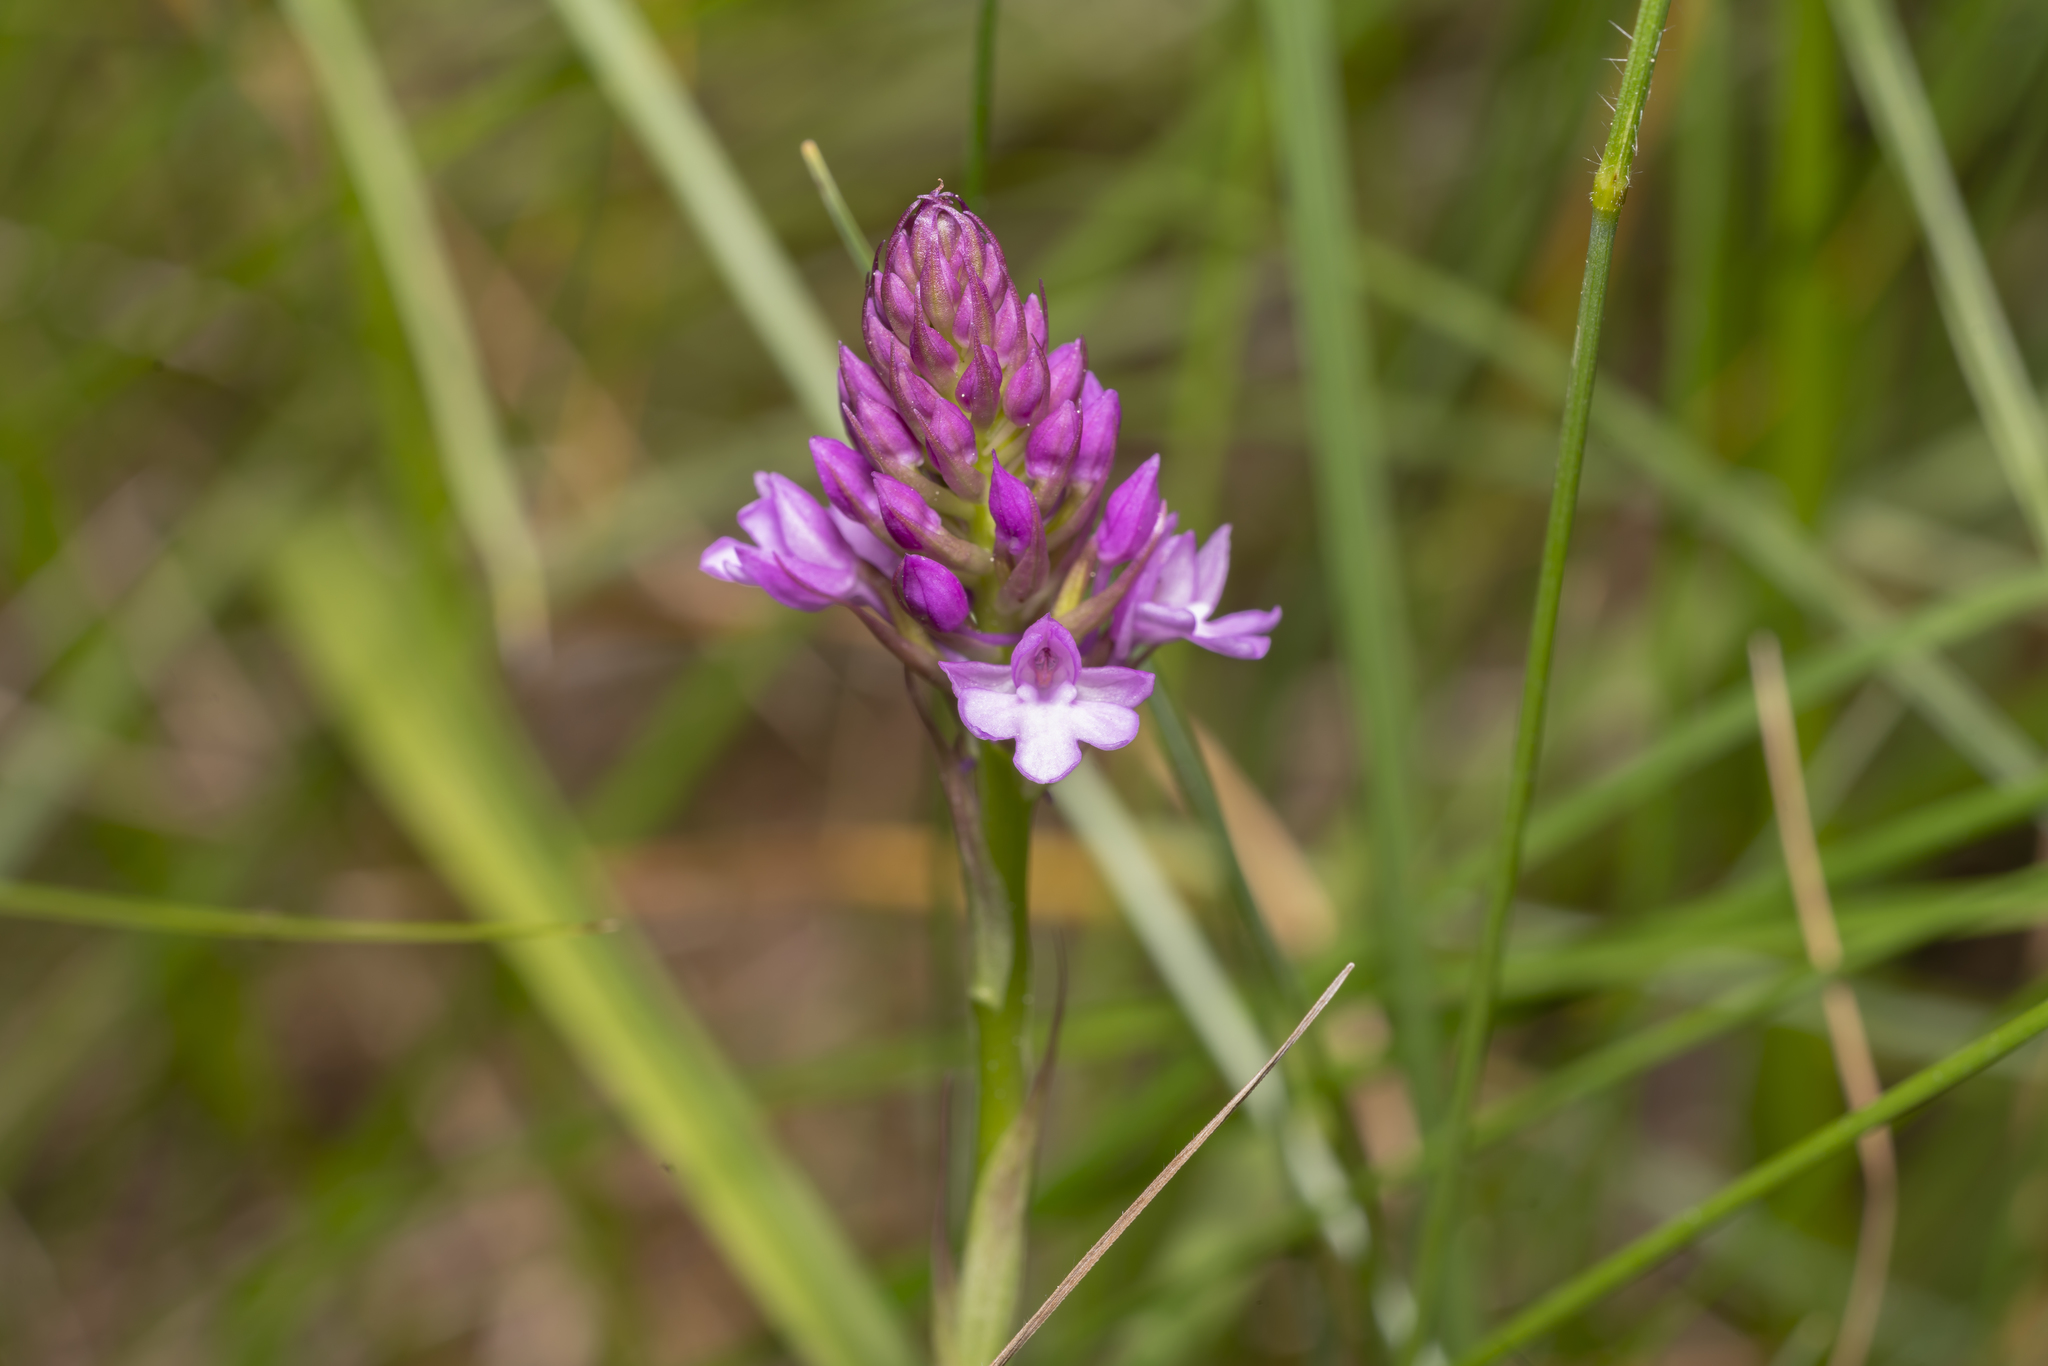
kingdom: Plantae
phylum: Tracheophyta
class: Liliopsida
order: Asparagales
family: Orchidaceae
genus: Anacamptis
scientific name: Anacamptis pyramidalis
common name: Pyramidal orchid
